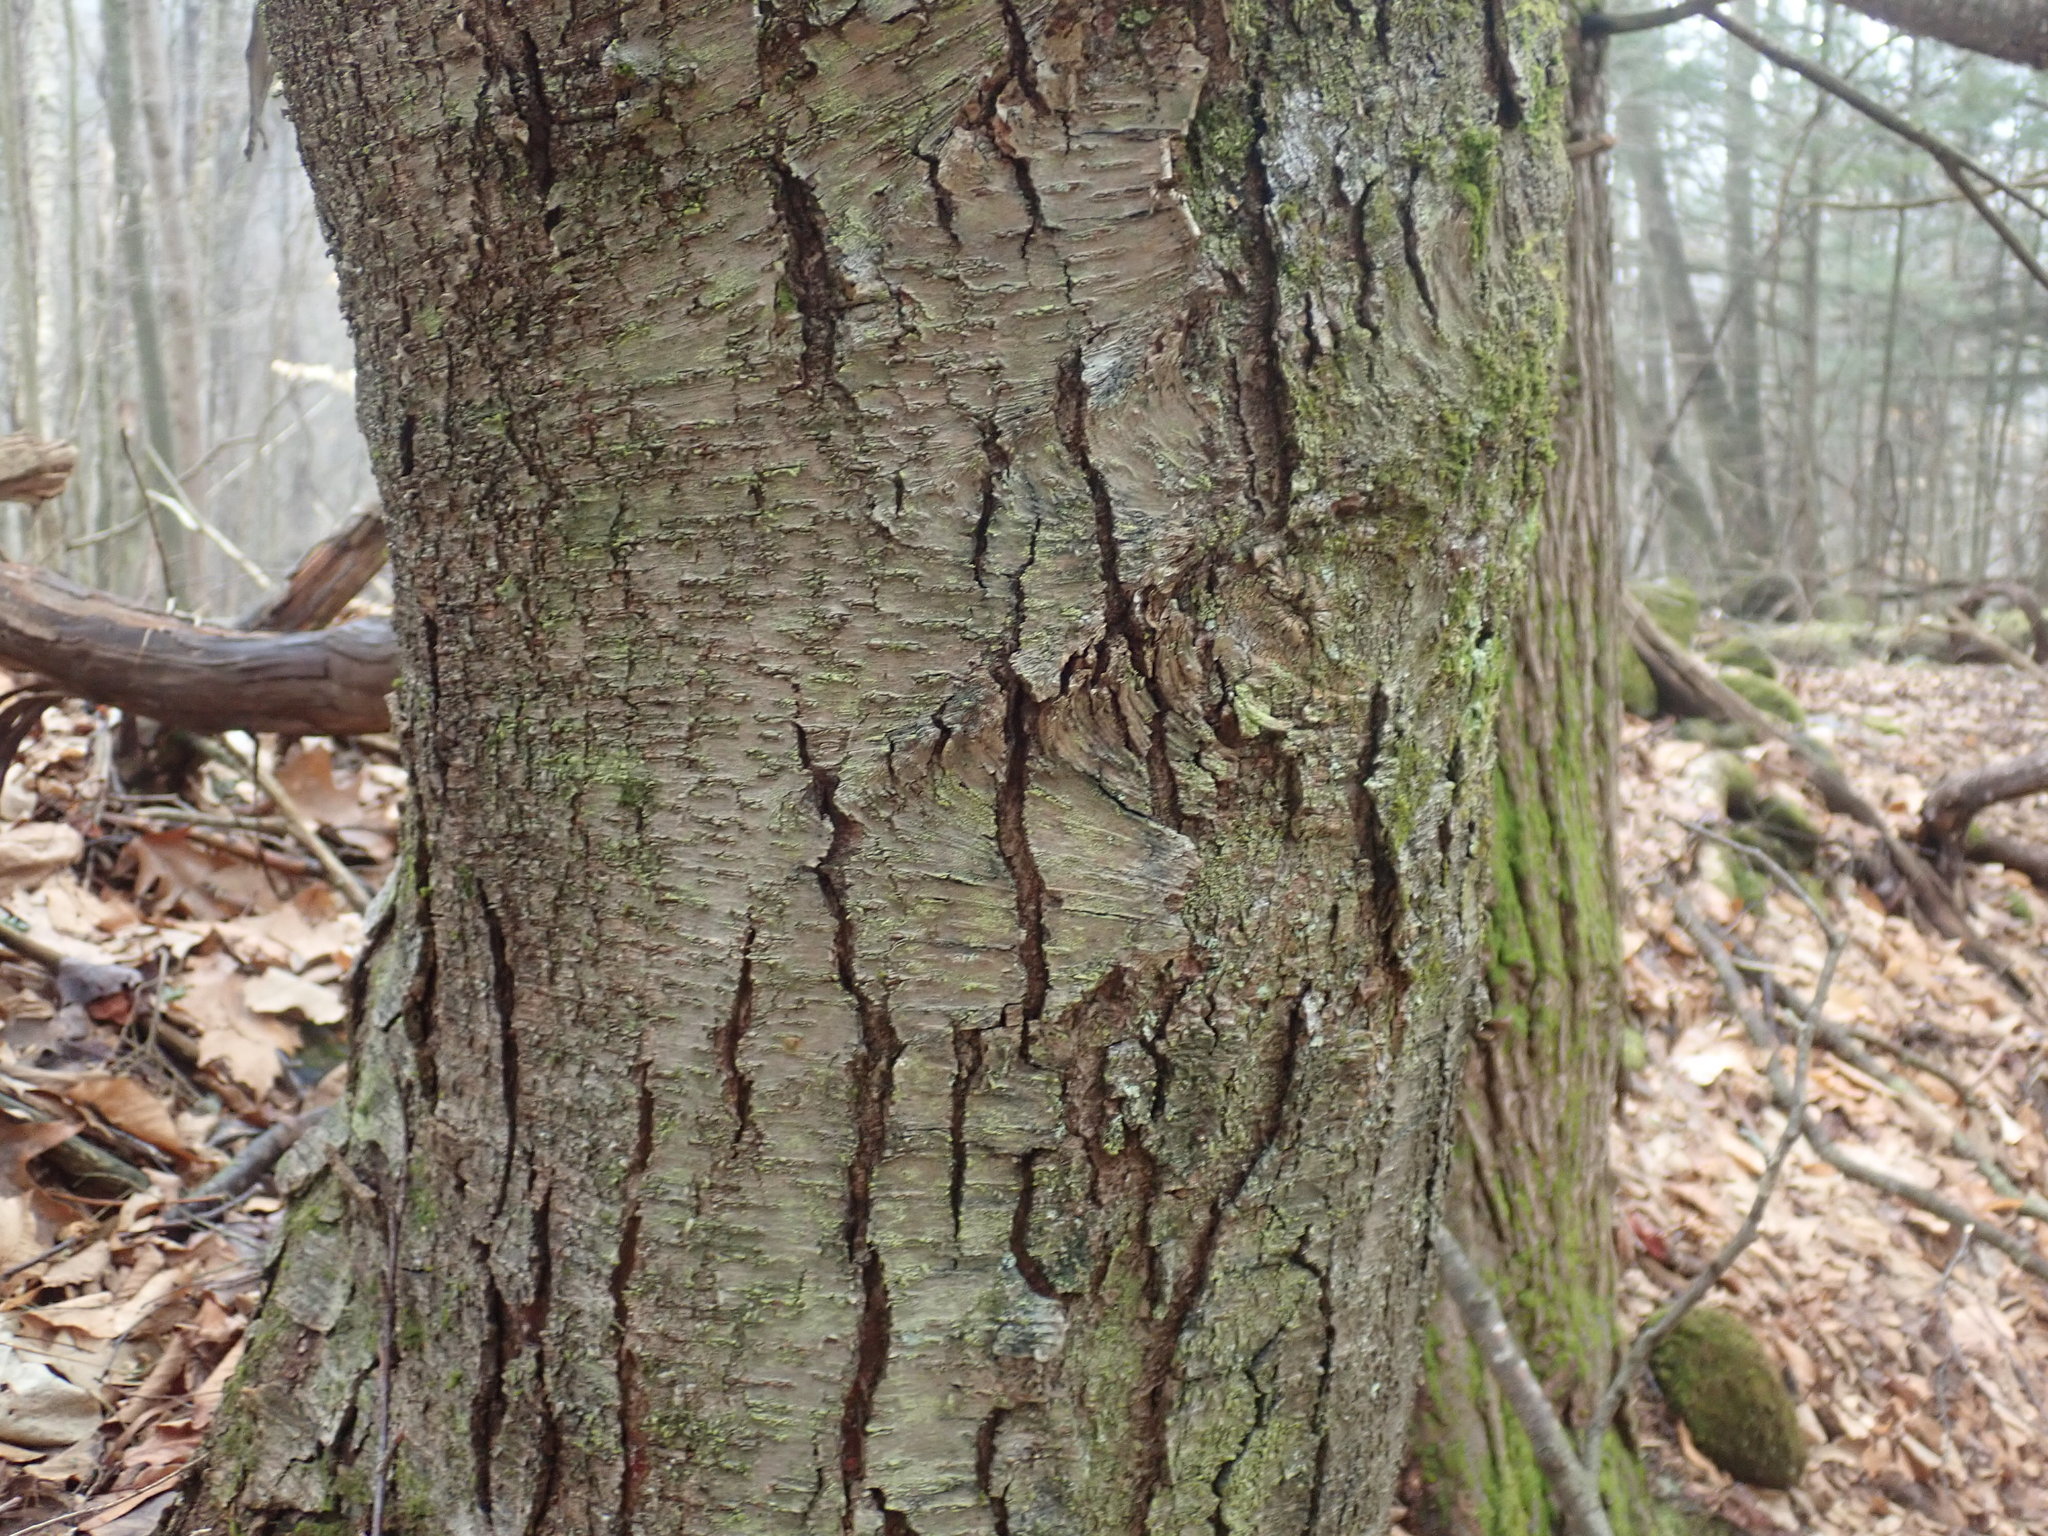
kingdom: Plantae
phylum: Tracheophyta
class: Magnoliopsida
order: Fagales
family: Betulaceae
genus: Betula
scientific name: Betula lenta
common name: Black birch
